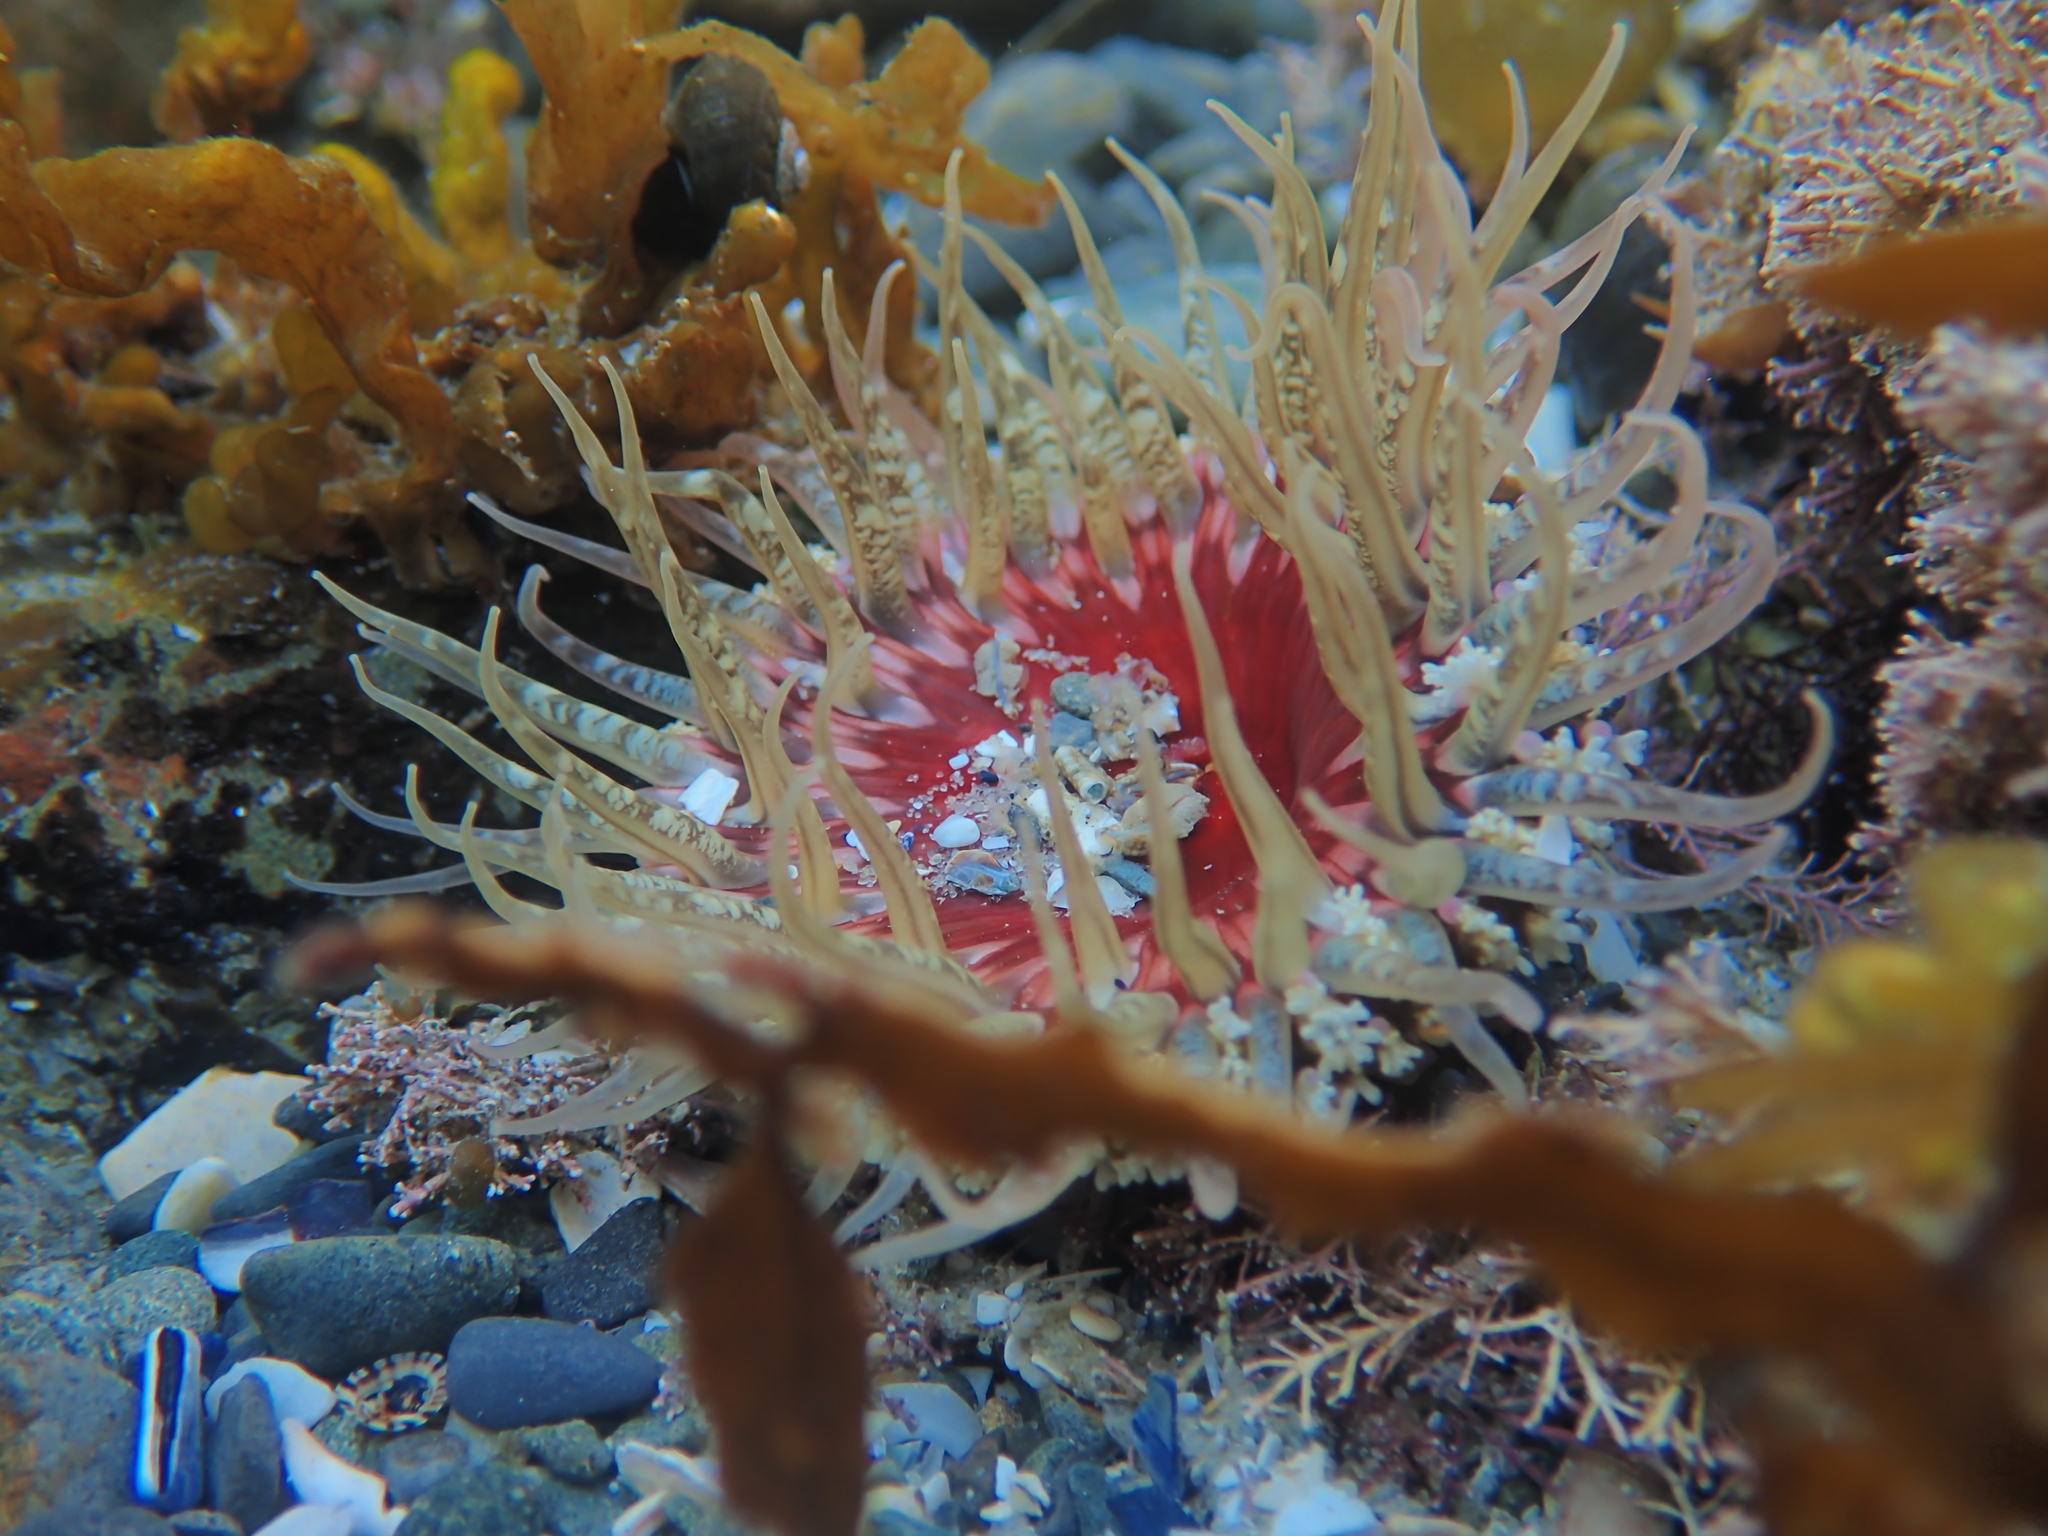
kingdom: Animalia
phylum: Cnidaria
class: Anthozoa
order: Actiniaria
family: Actiniidae
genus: Oulactis
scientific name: Oulactis muscosa
